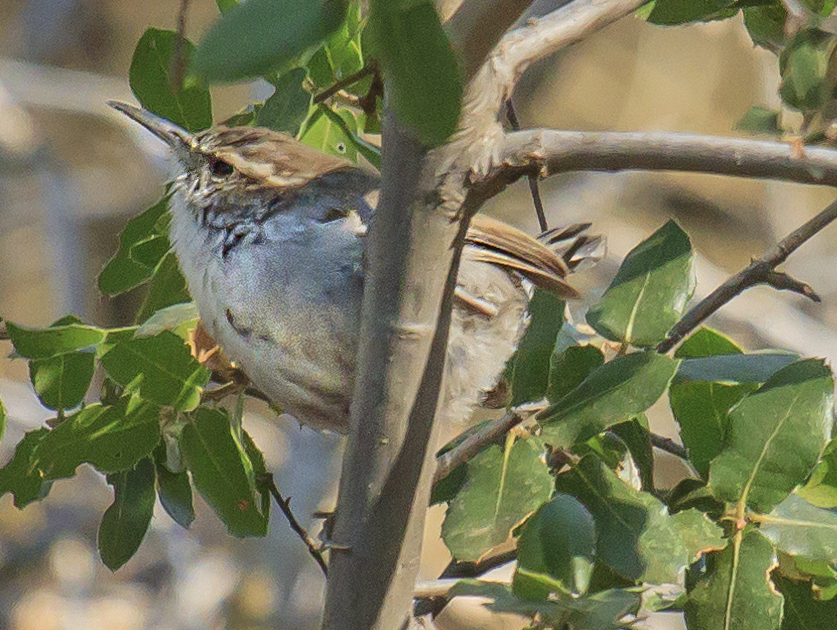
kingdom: Animalia
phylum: Chordata
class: Aves
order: Passeriformes
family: Troglodytidae
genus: Thryomanes
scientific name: Thryomanes bewickii
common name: Bewick's wren
